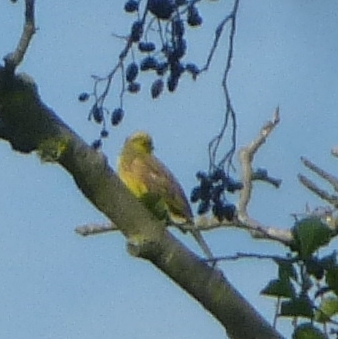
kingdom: Animalia
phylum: Chordata
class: Aves
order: Passeriformes
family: Emberizidae
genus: Emberiza
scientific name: Emberiza citrinella
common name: Yellowhammer
